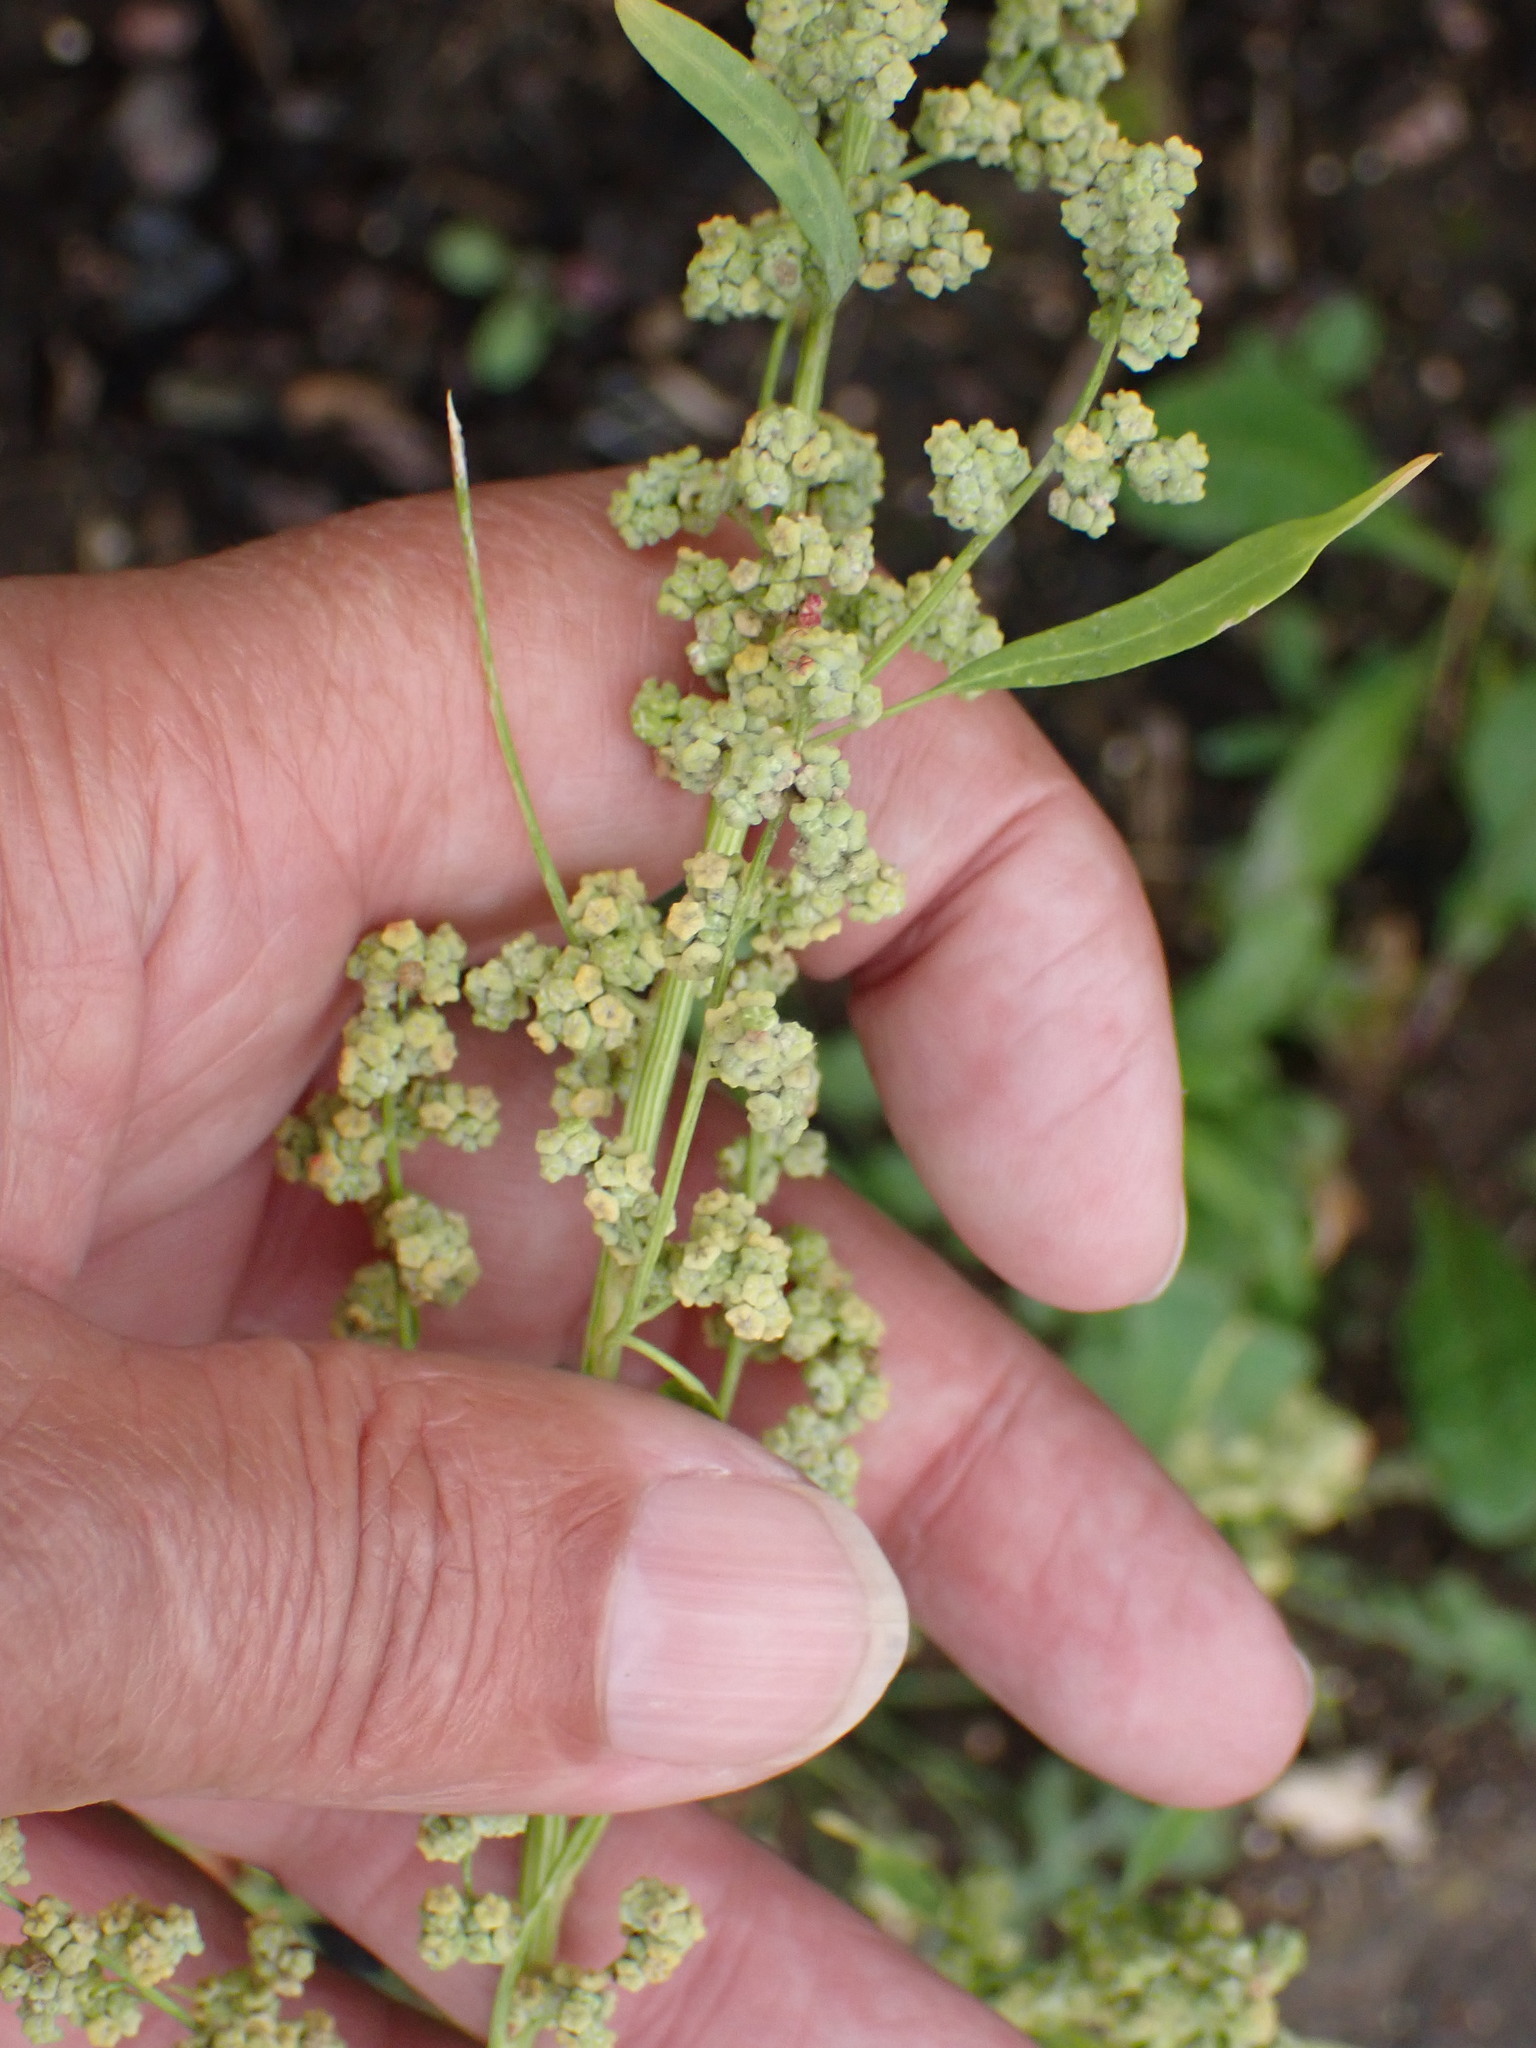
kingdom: Plantae
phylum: Tracheophyta
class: Magnoliopsida
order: Caryophyllales
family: Amaranthaceae
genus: Chenopodium
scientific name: Chenopodium album
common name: Fat-hen
